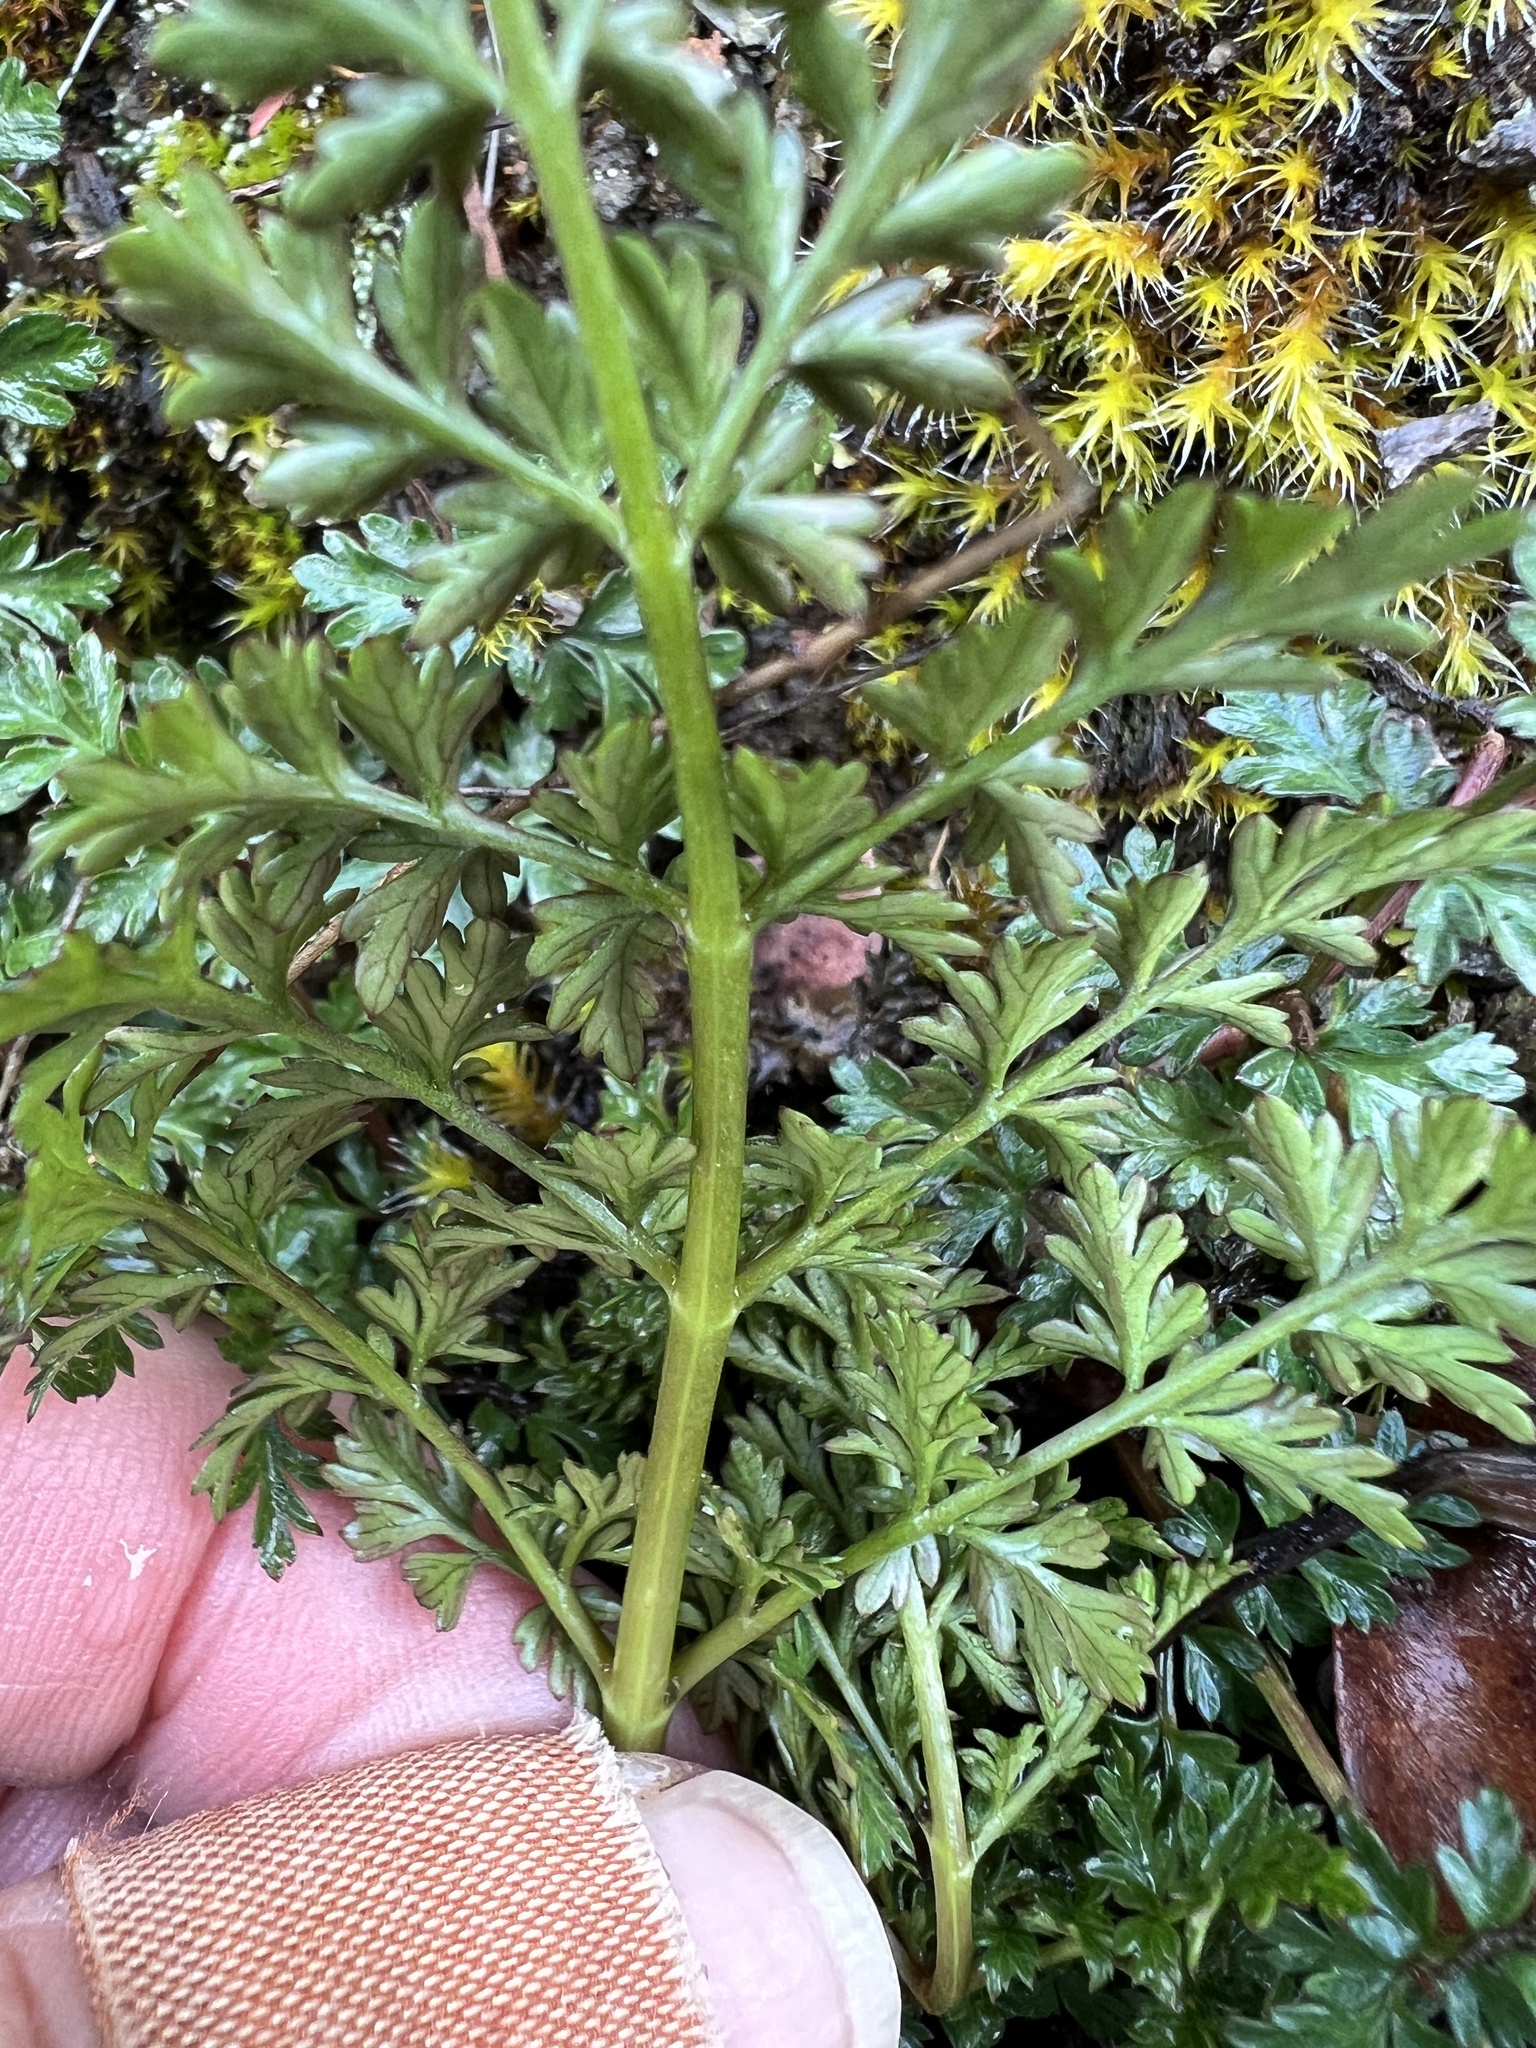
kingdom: Plantae
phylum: Tracheophyta
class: Magnoliopsida
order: Apiales
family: Apiaceae
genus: Lomatium
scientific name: Lomatium hallii
